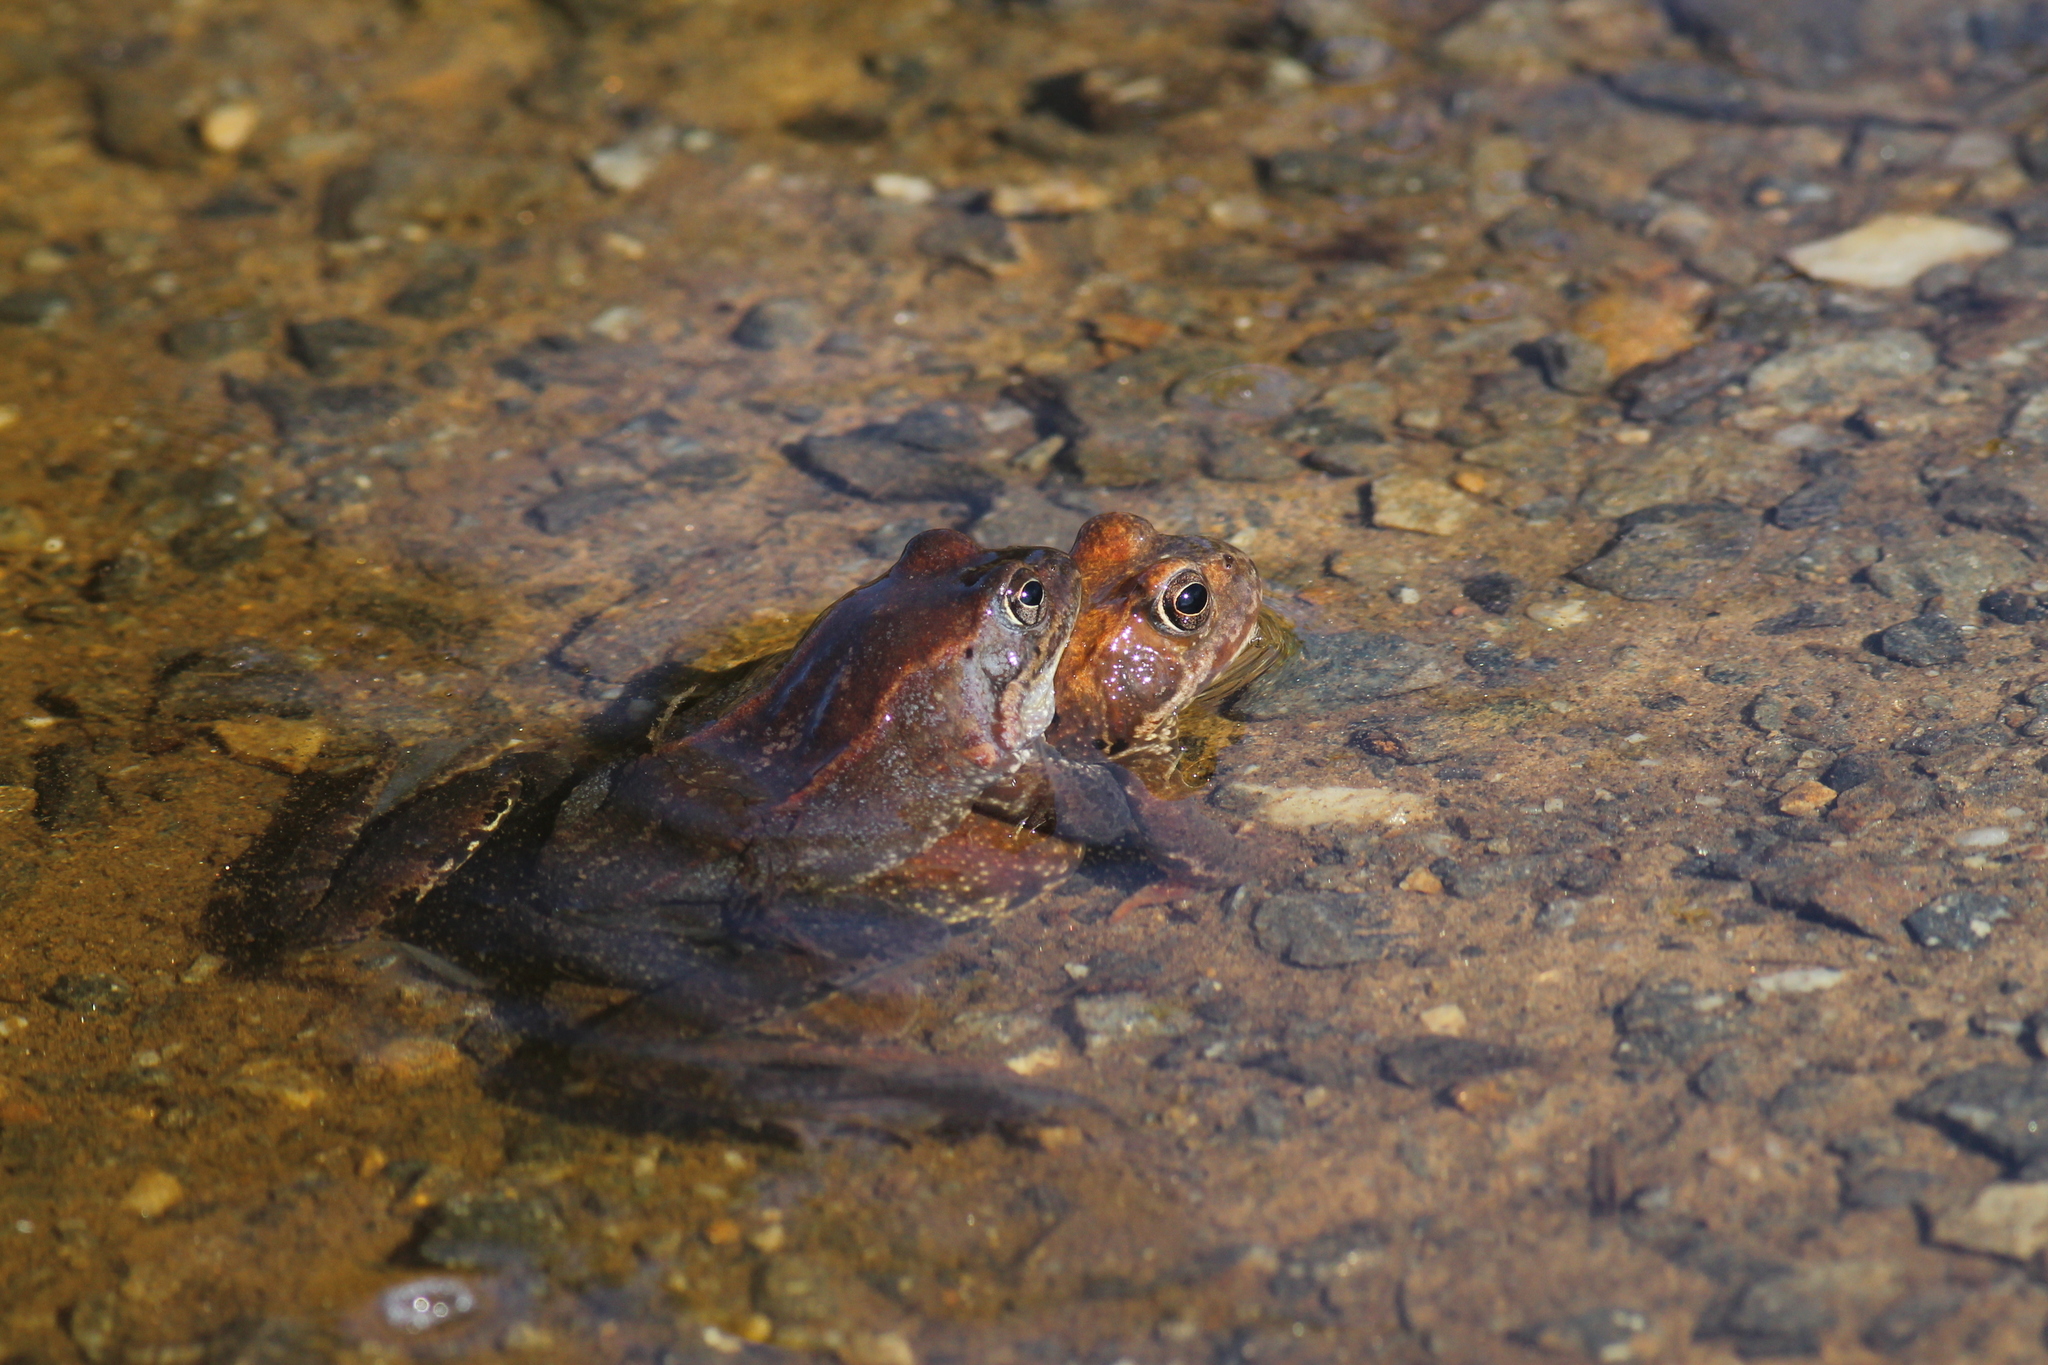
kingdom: Animalia
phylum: Chordata
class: Amphibia
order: Anura
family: Ranidae
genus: Rana
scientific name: Rana temporaria
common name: Common frog
